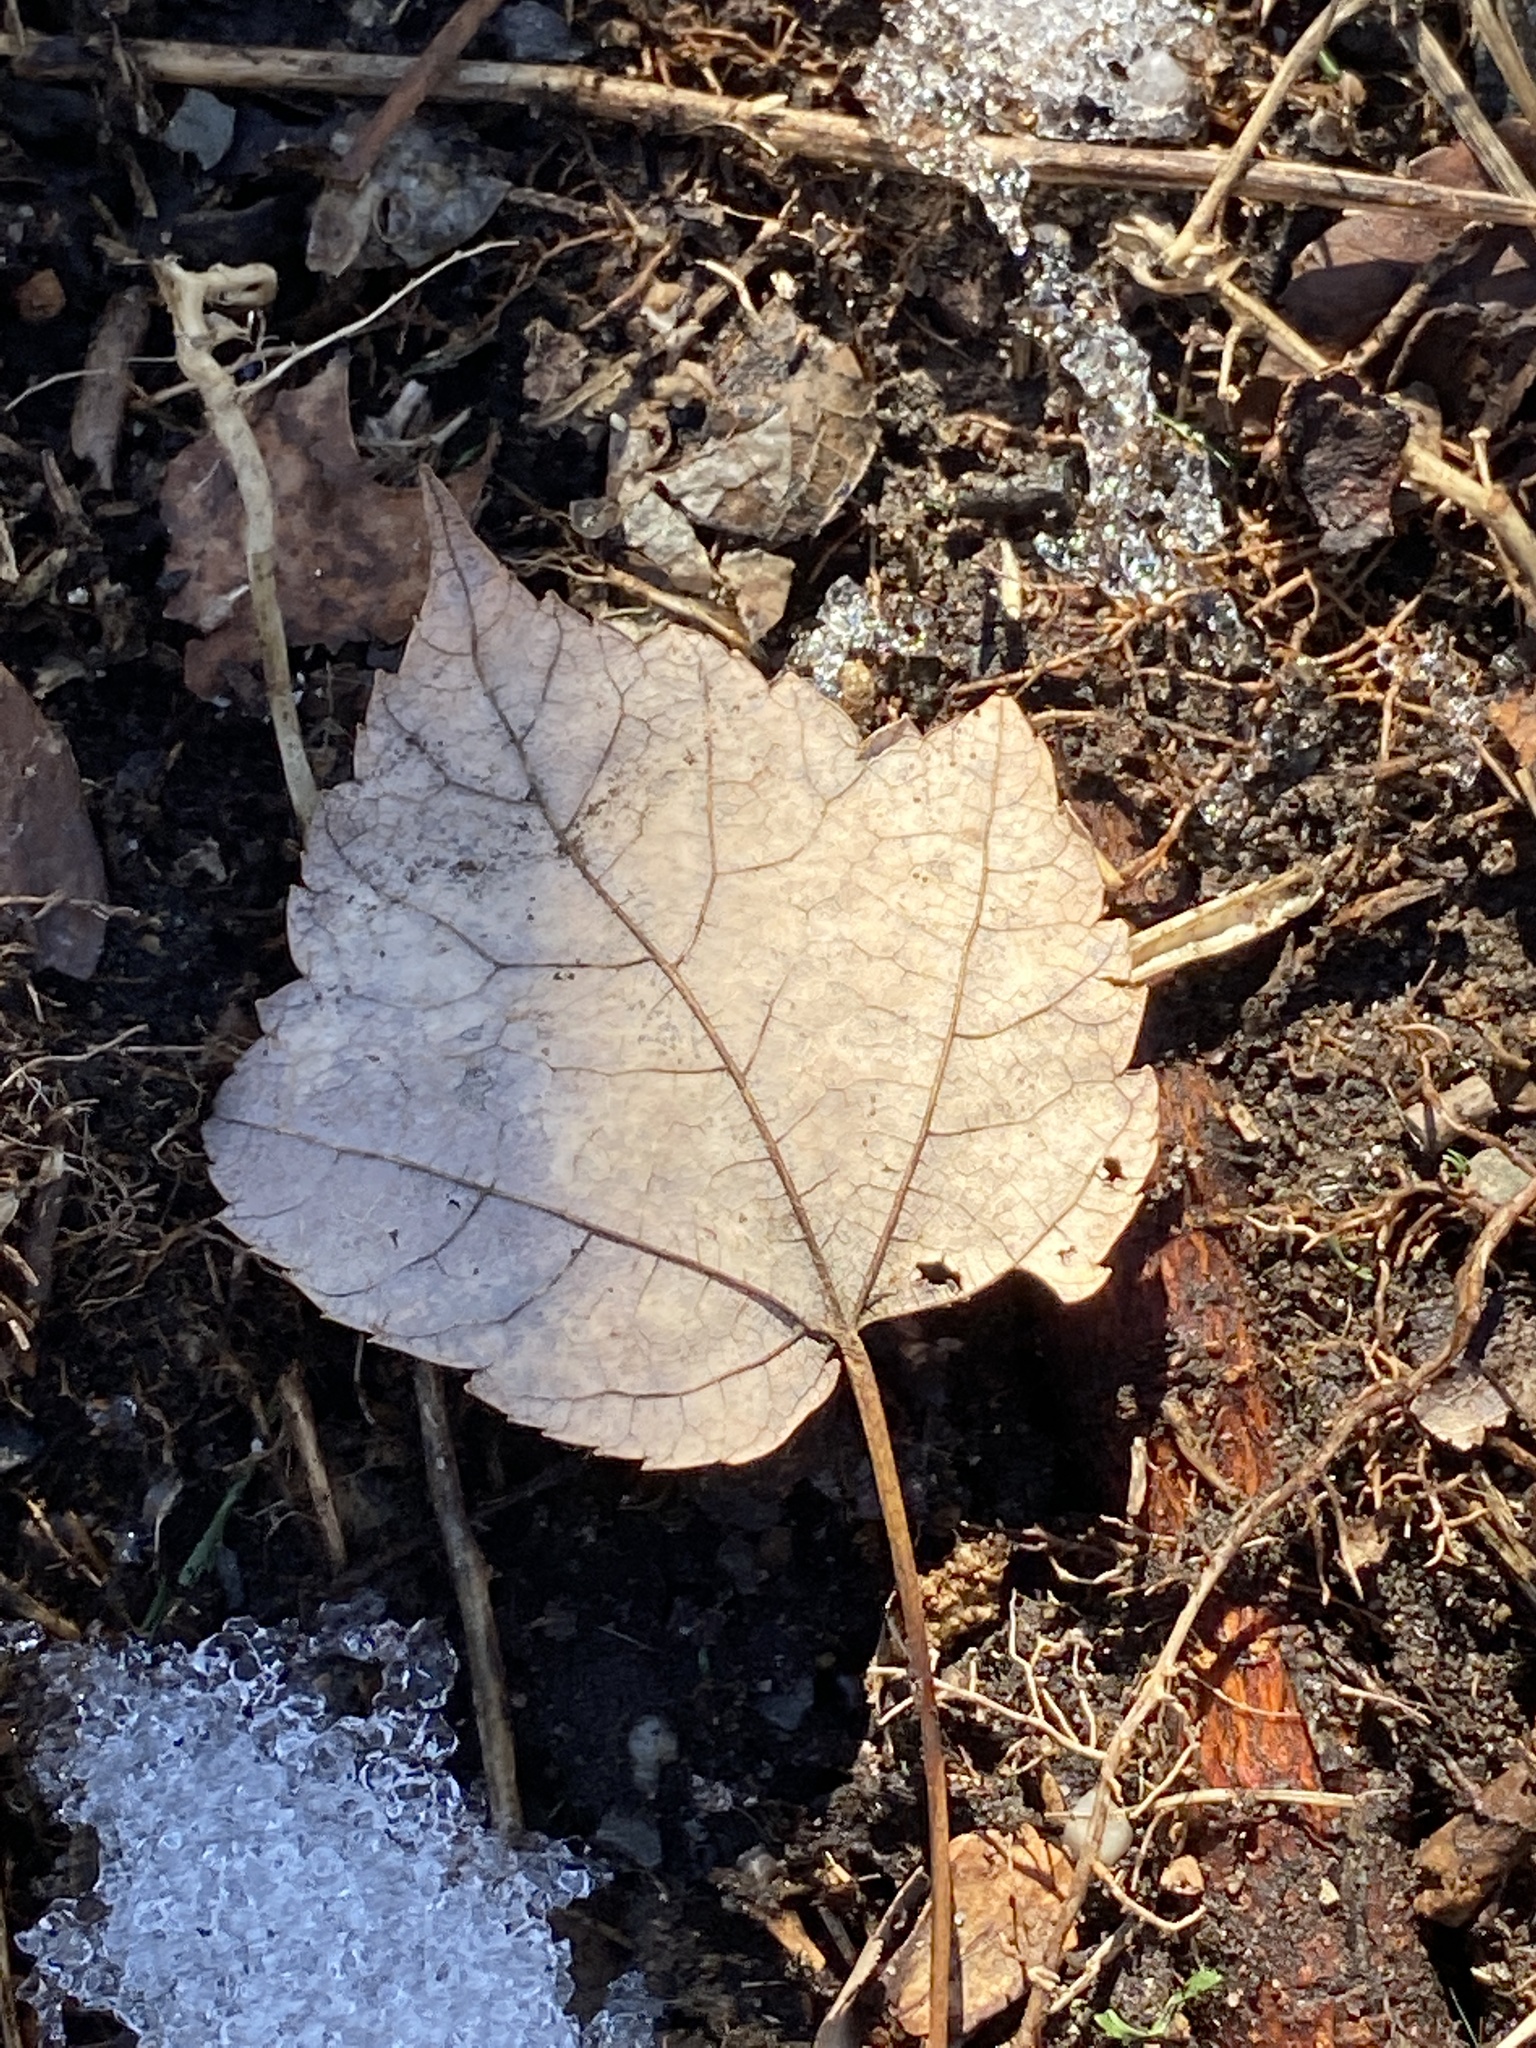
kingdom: Plantae
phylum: Tracheophyta
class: Magnoliopsida
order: Sapindales
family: Sapindaceae
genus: Acer
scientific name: Acer rubrum
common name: Red maple
